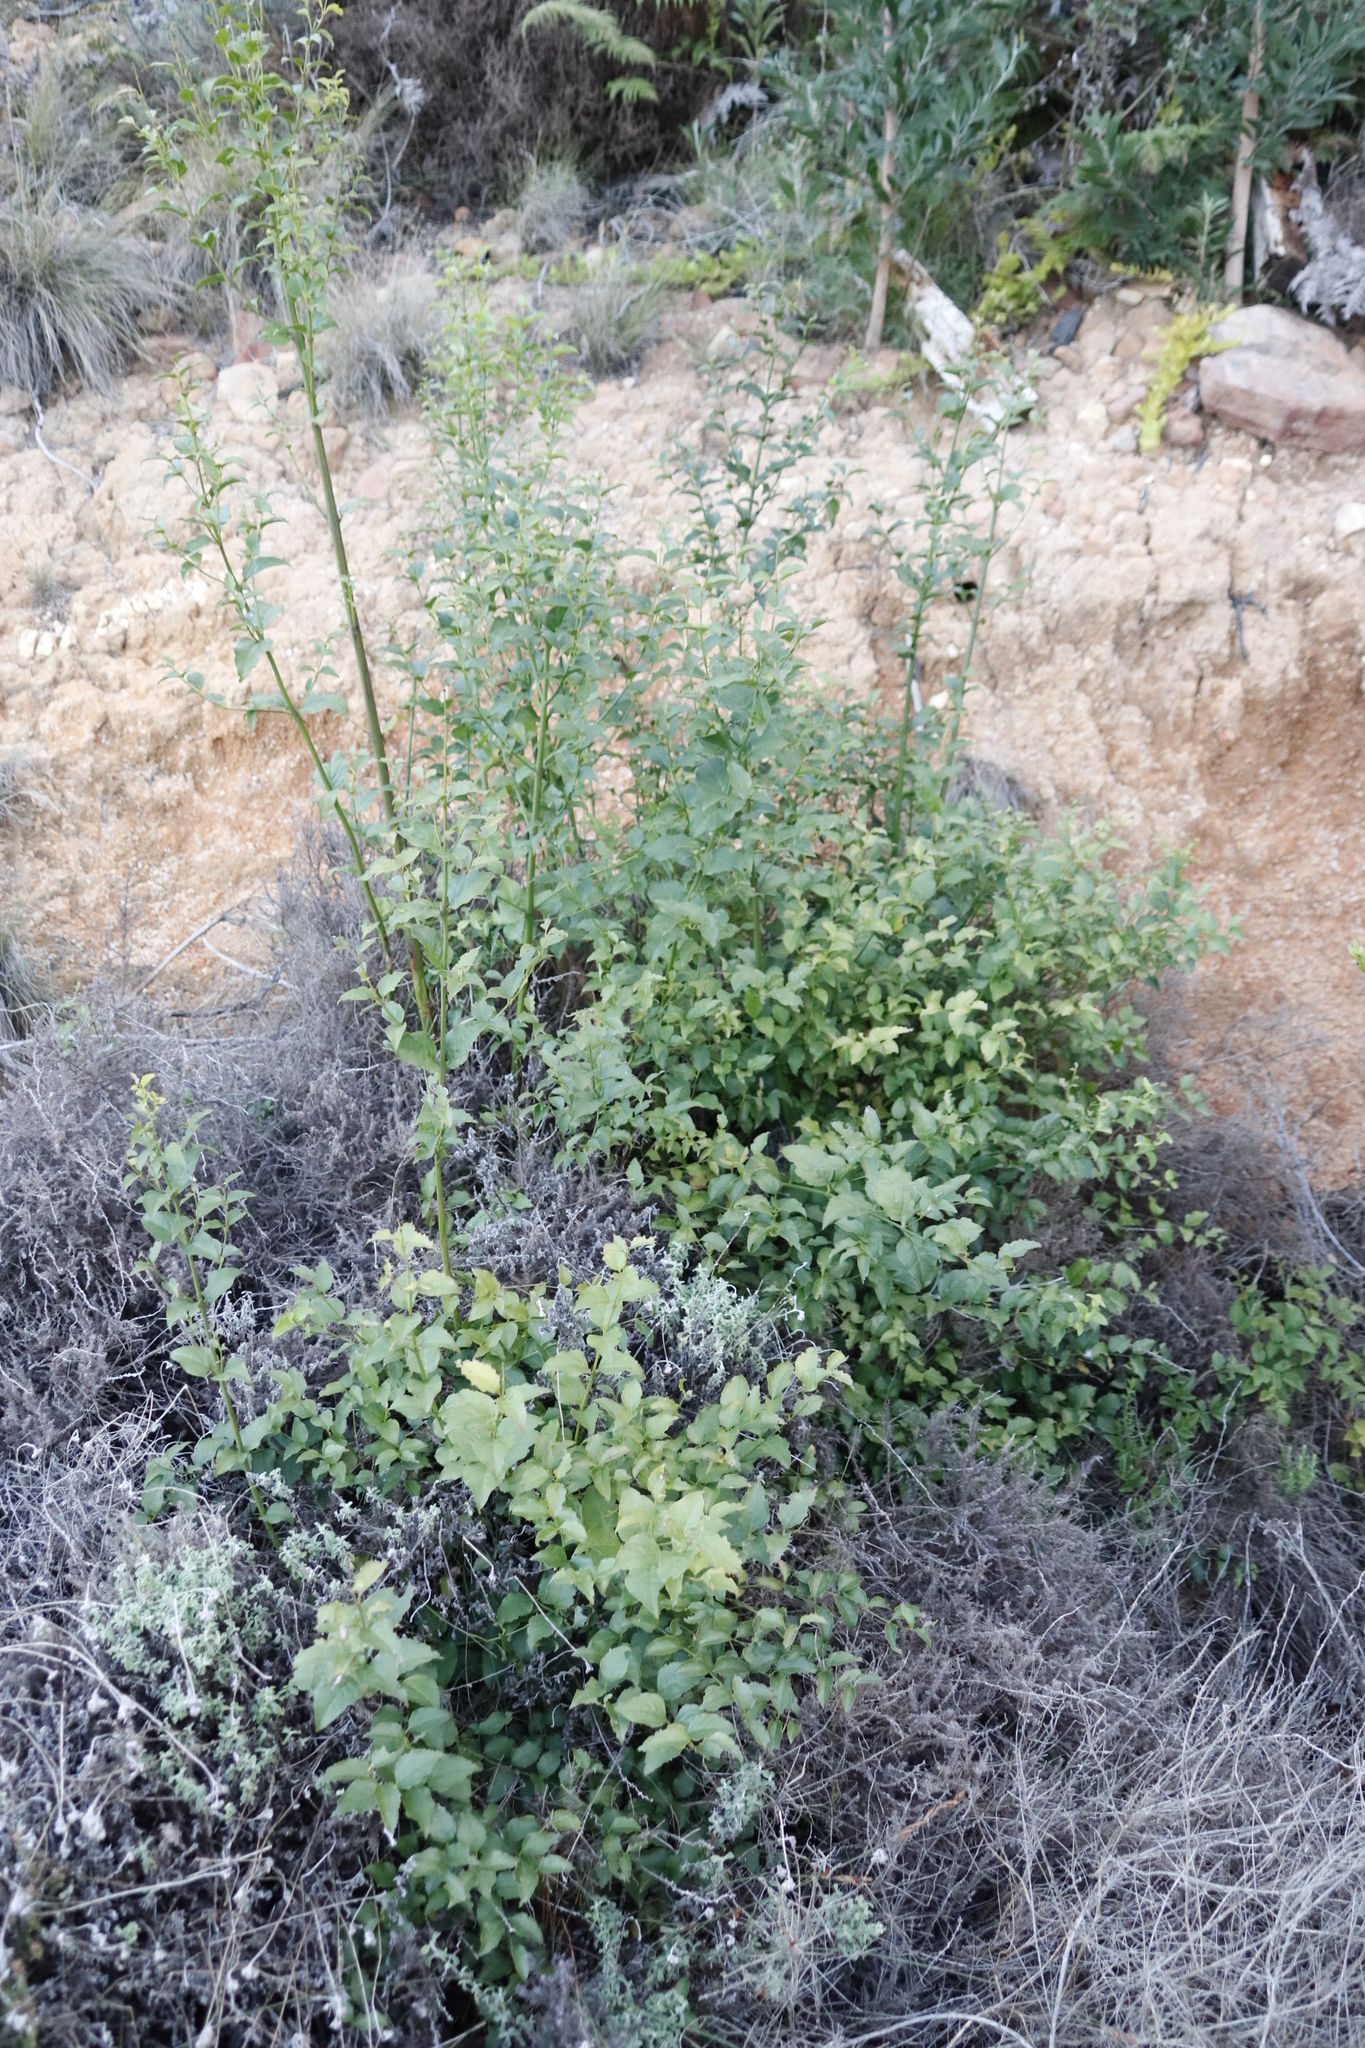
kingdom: Plantae
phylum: Tracheophyta
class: Magnoliopsida
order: Lamiales
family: Stilbaceae
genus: Halleria
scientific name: Halleria lucida
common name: Tree fuschia
